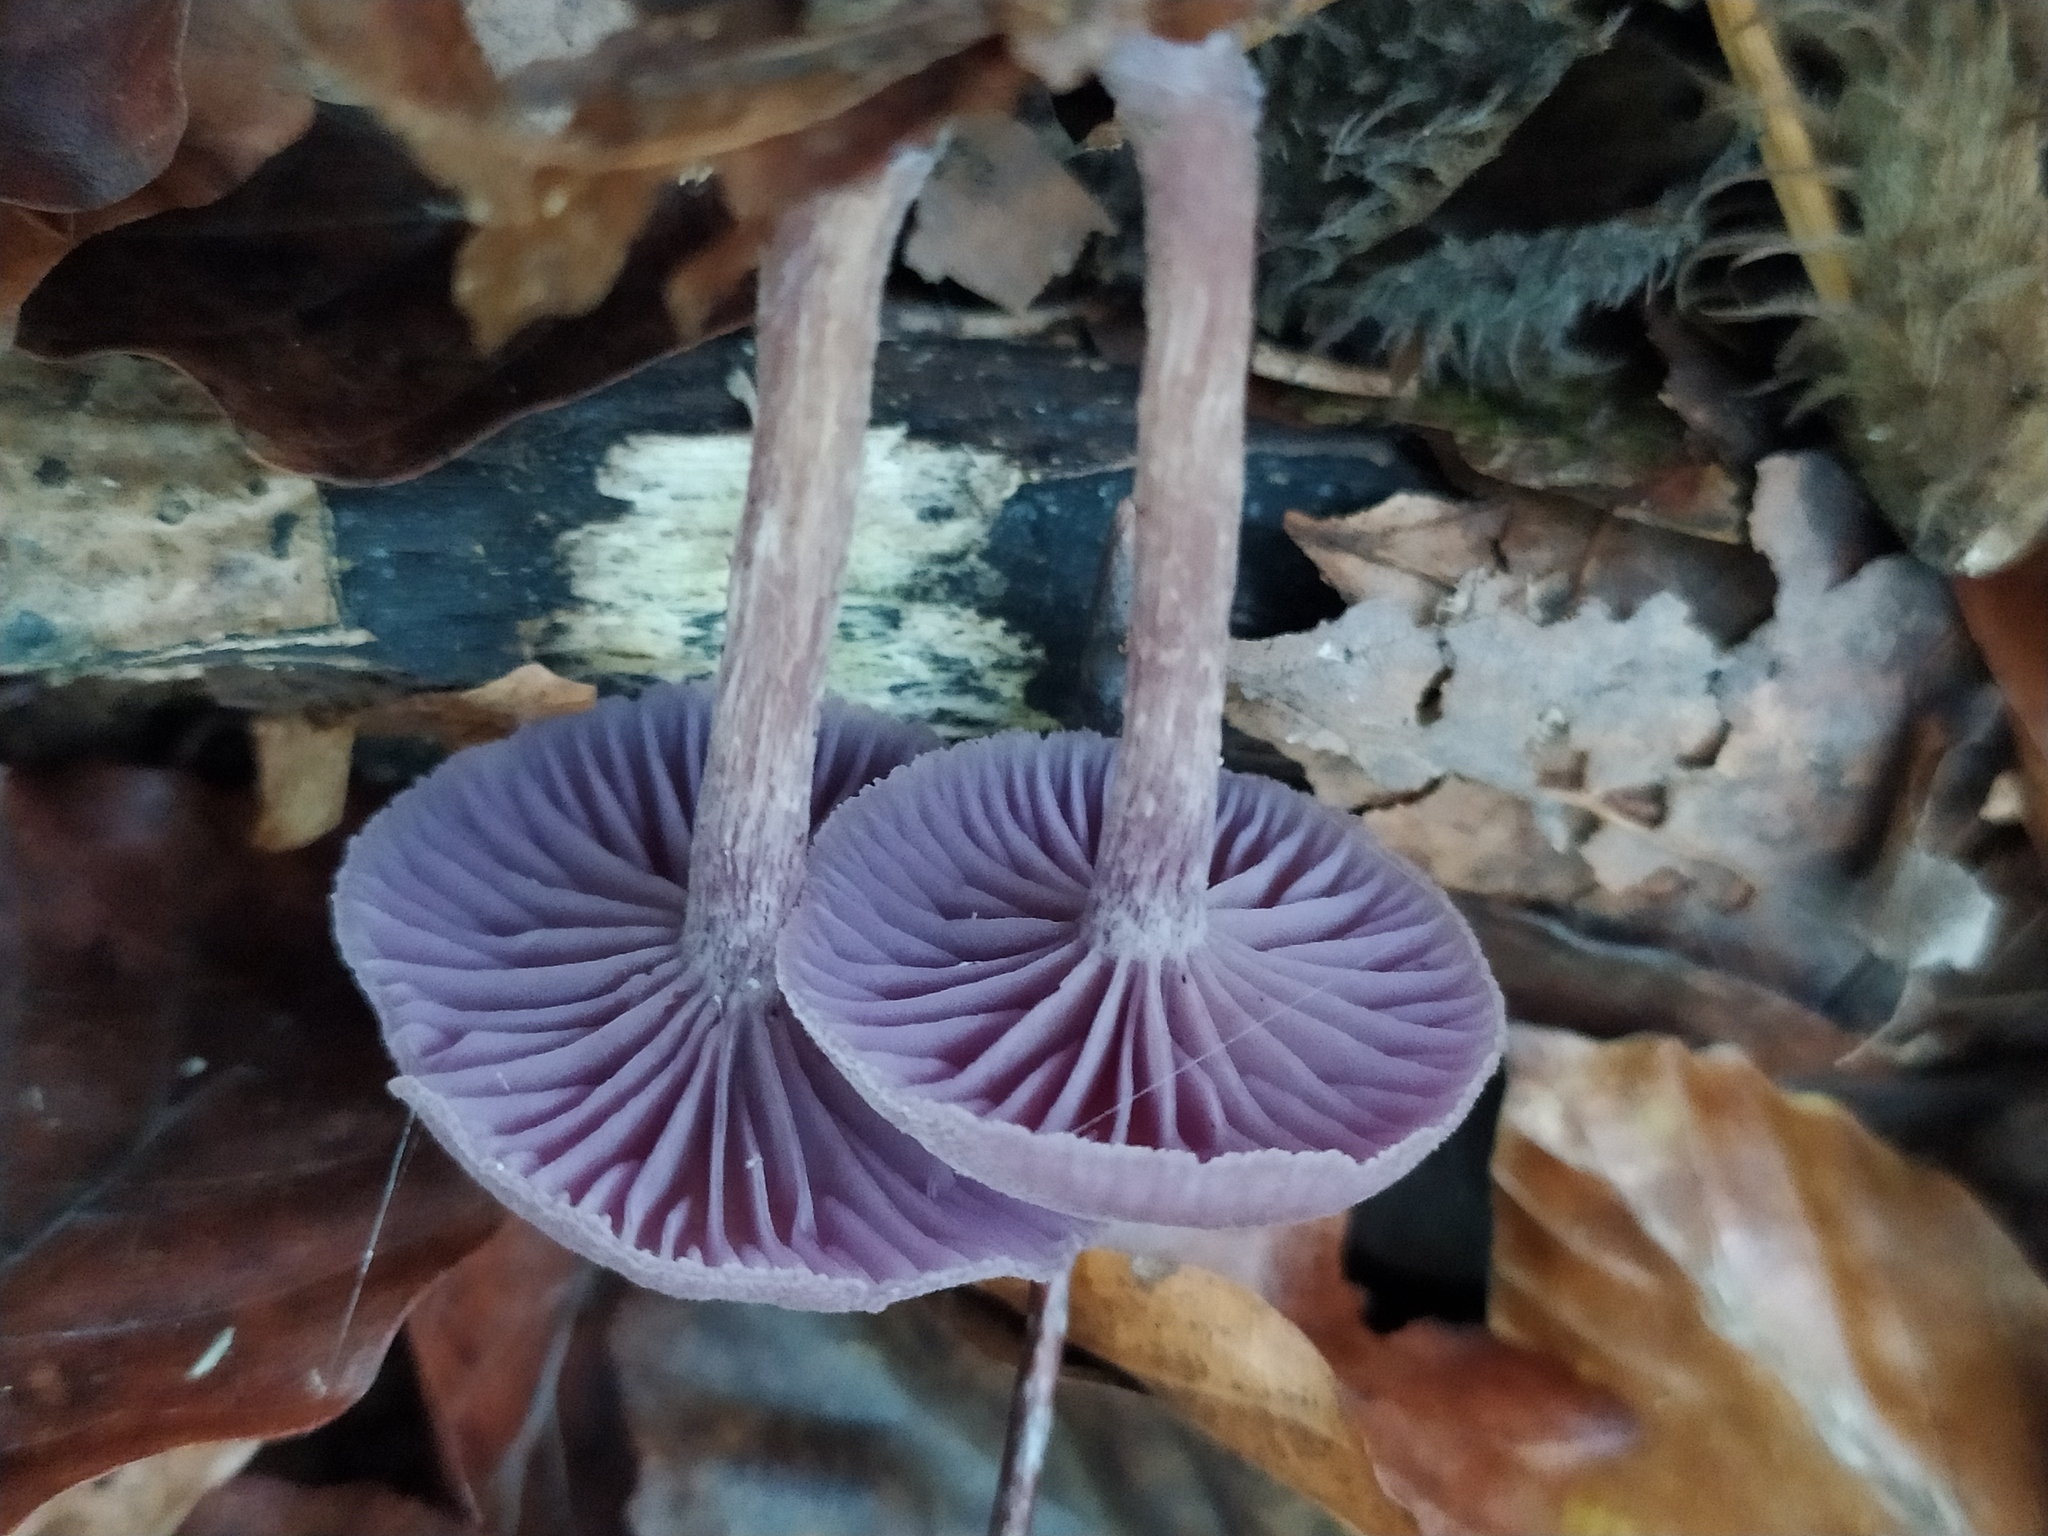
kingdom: Fungi
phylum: Basidiomycota
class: Agaricomycetes
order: Agaricales
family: Hydnangiaceae
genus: Laccaria
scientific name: Laccaria amethystina
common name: Amethyst deceiver
